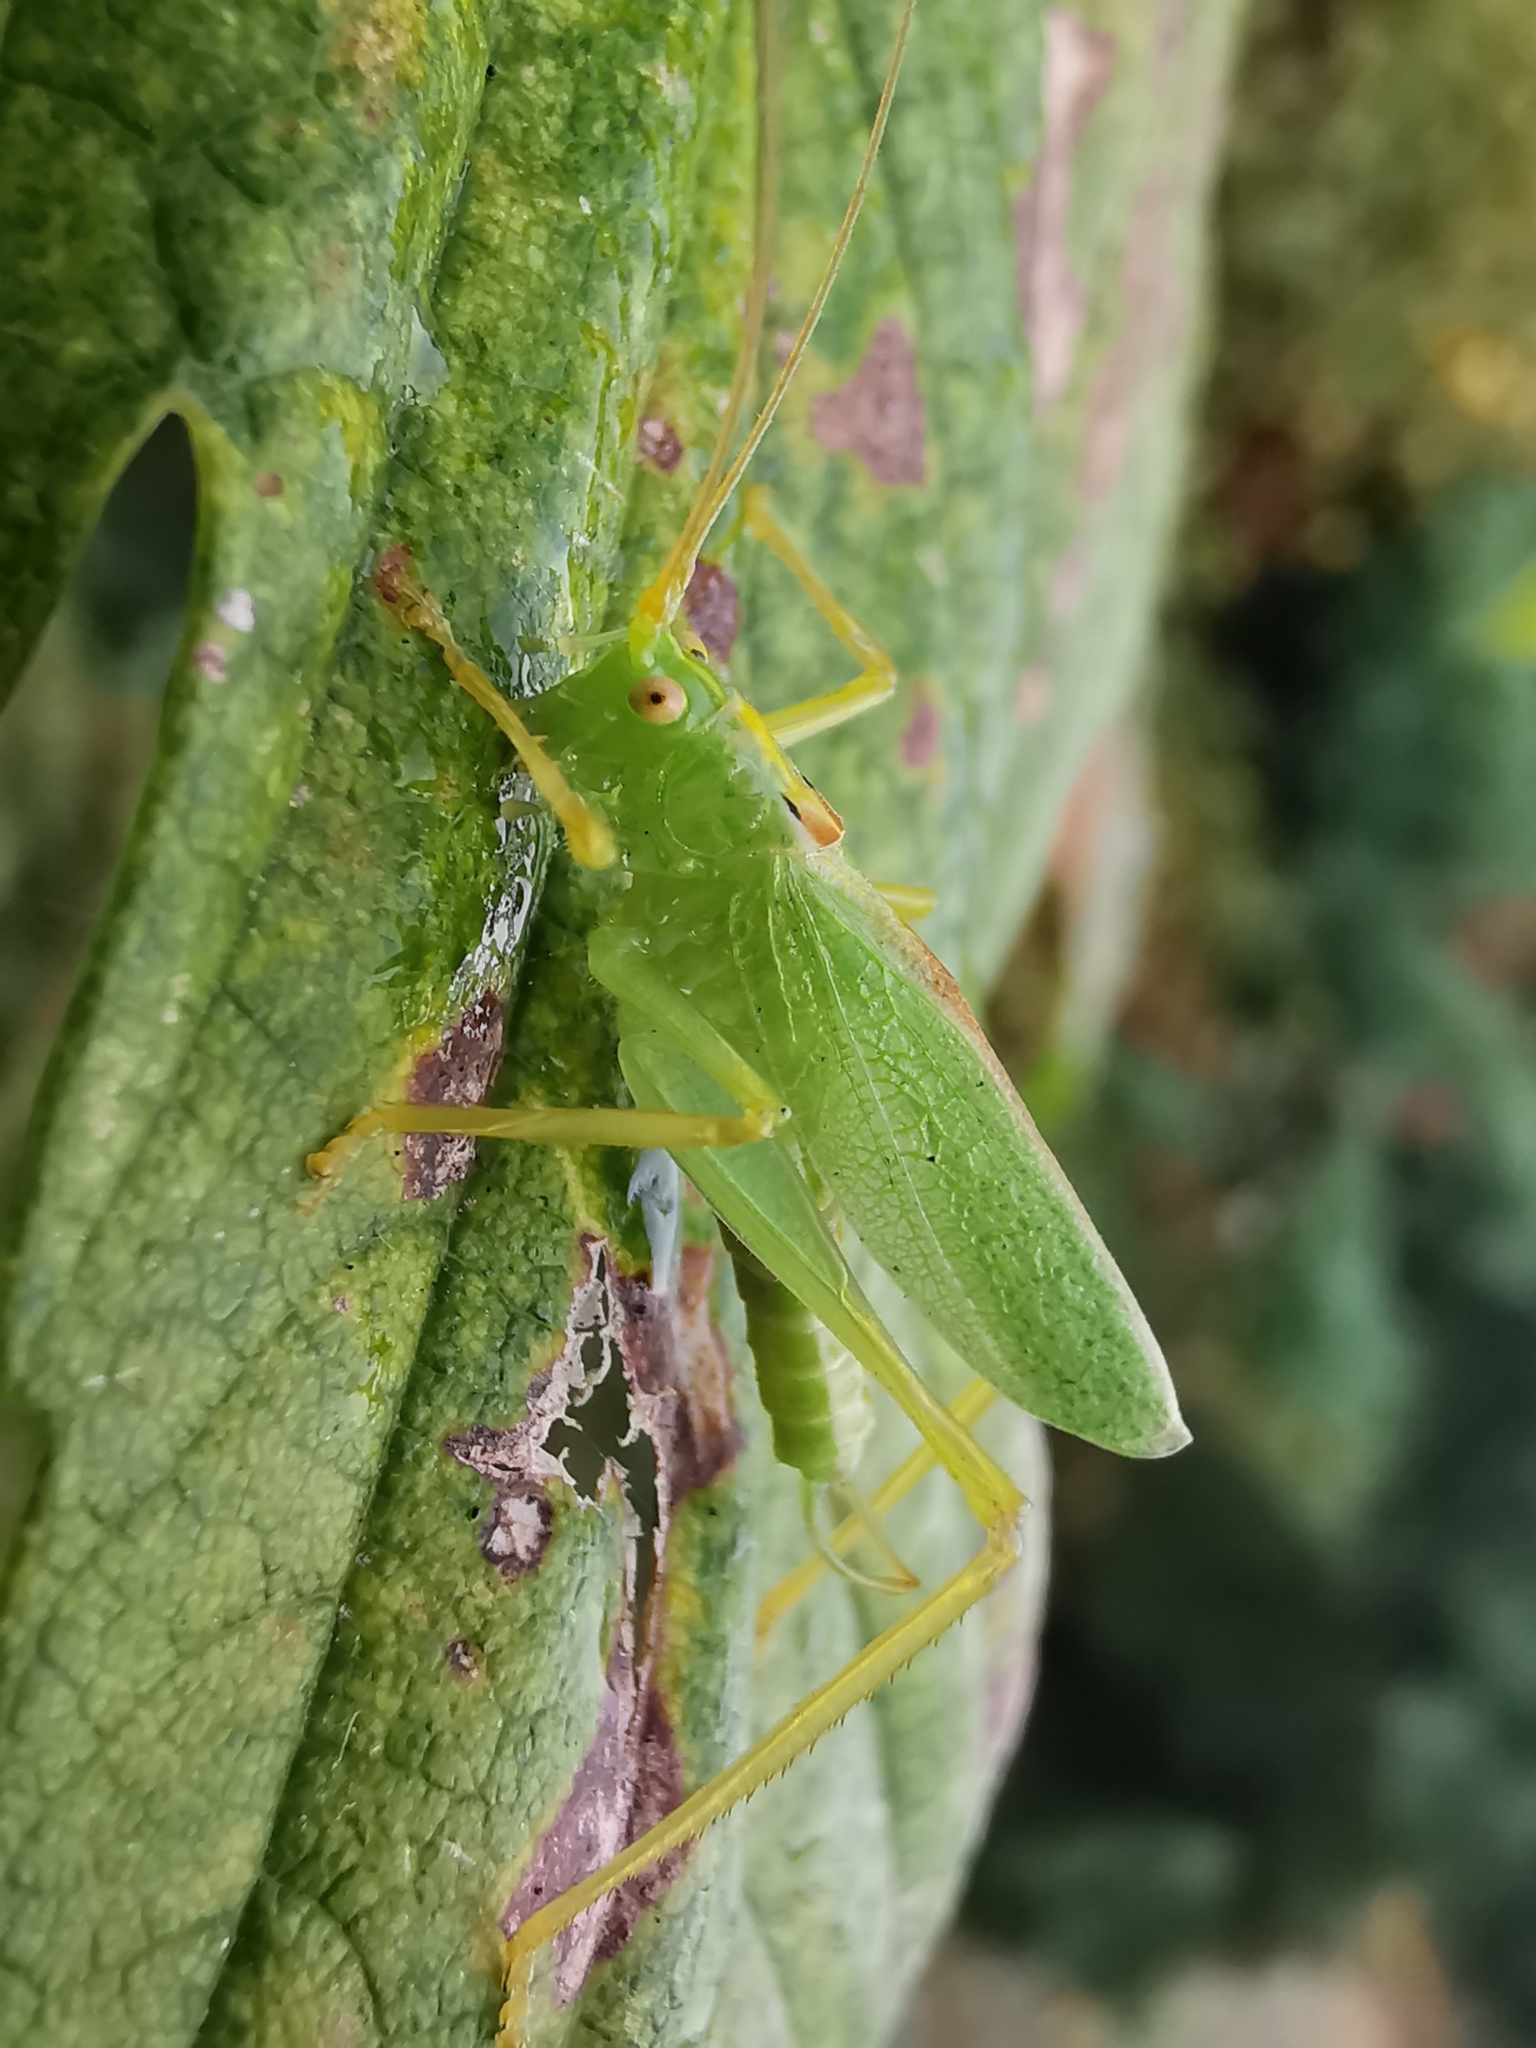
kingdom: Animalia
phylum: Arthropoda
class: Insecta
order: Orthoptera
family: Tettigoniidae
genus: Meconema
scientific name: Meconema thalassinum
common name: Oak bush-cricket
